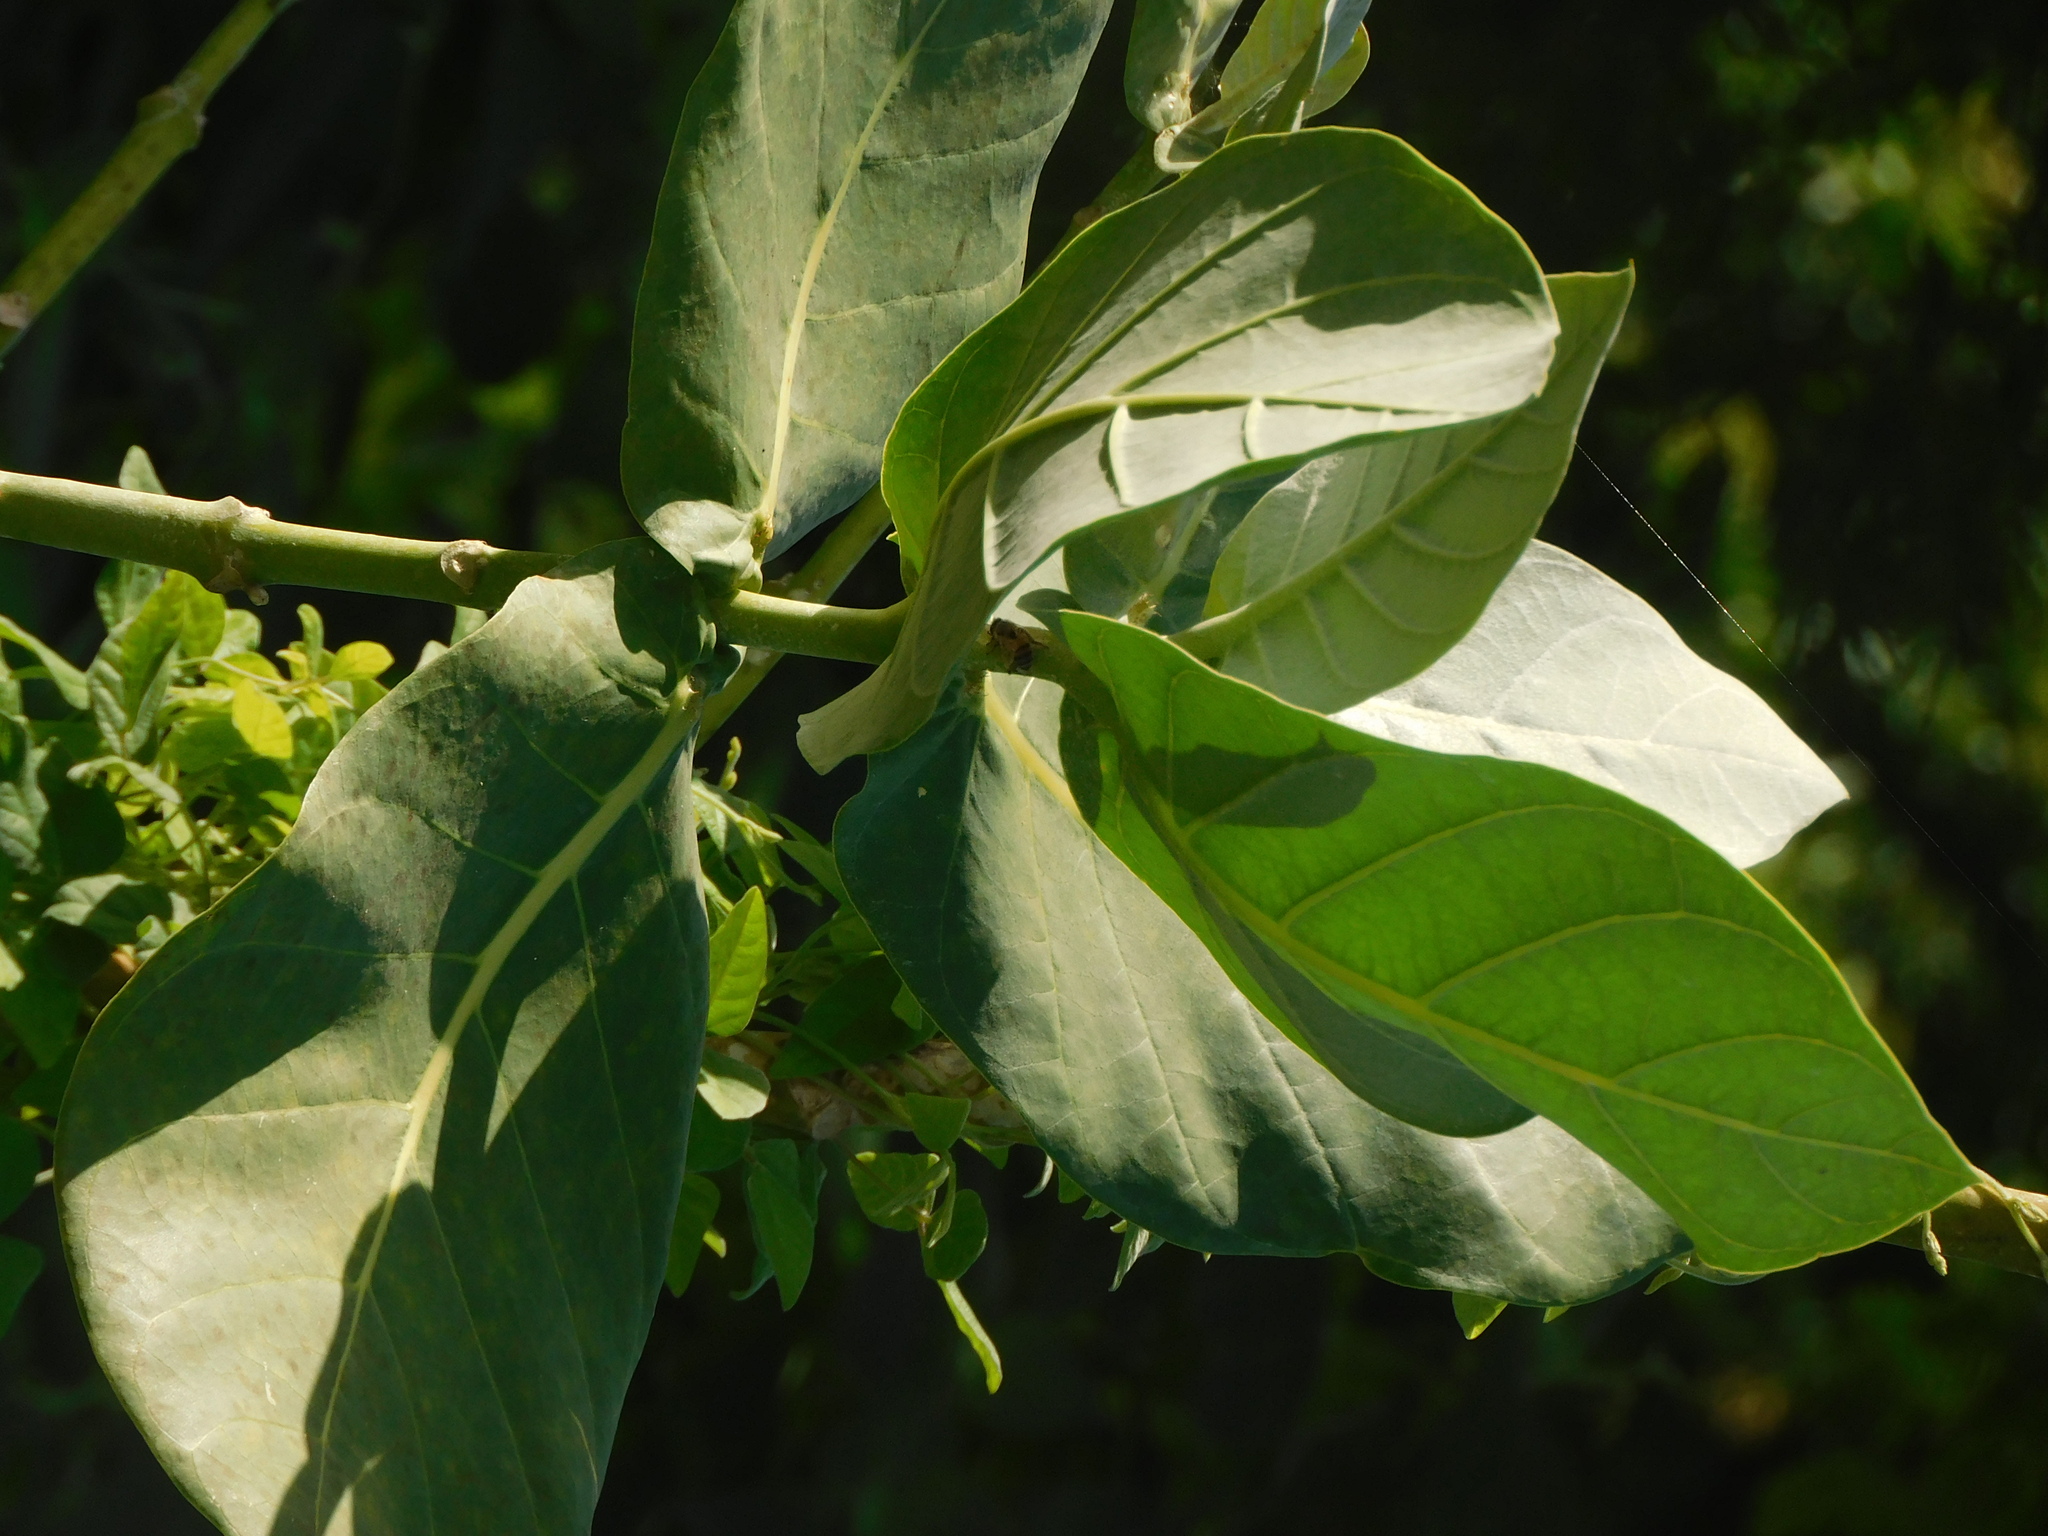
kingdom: Plantae
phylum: Tracheophyta
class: Magnoliopsida
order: Gentianales
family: Apocynaceae
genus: Calotropis
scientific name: Calotropis procera
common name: Roostertree
